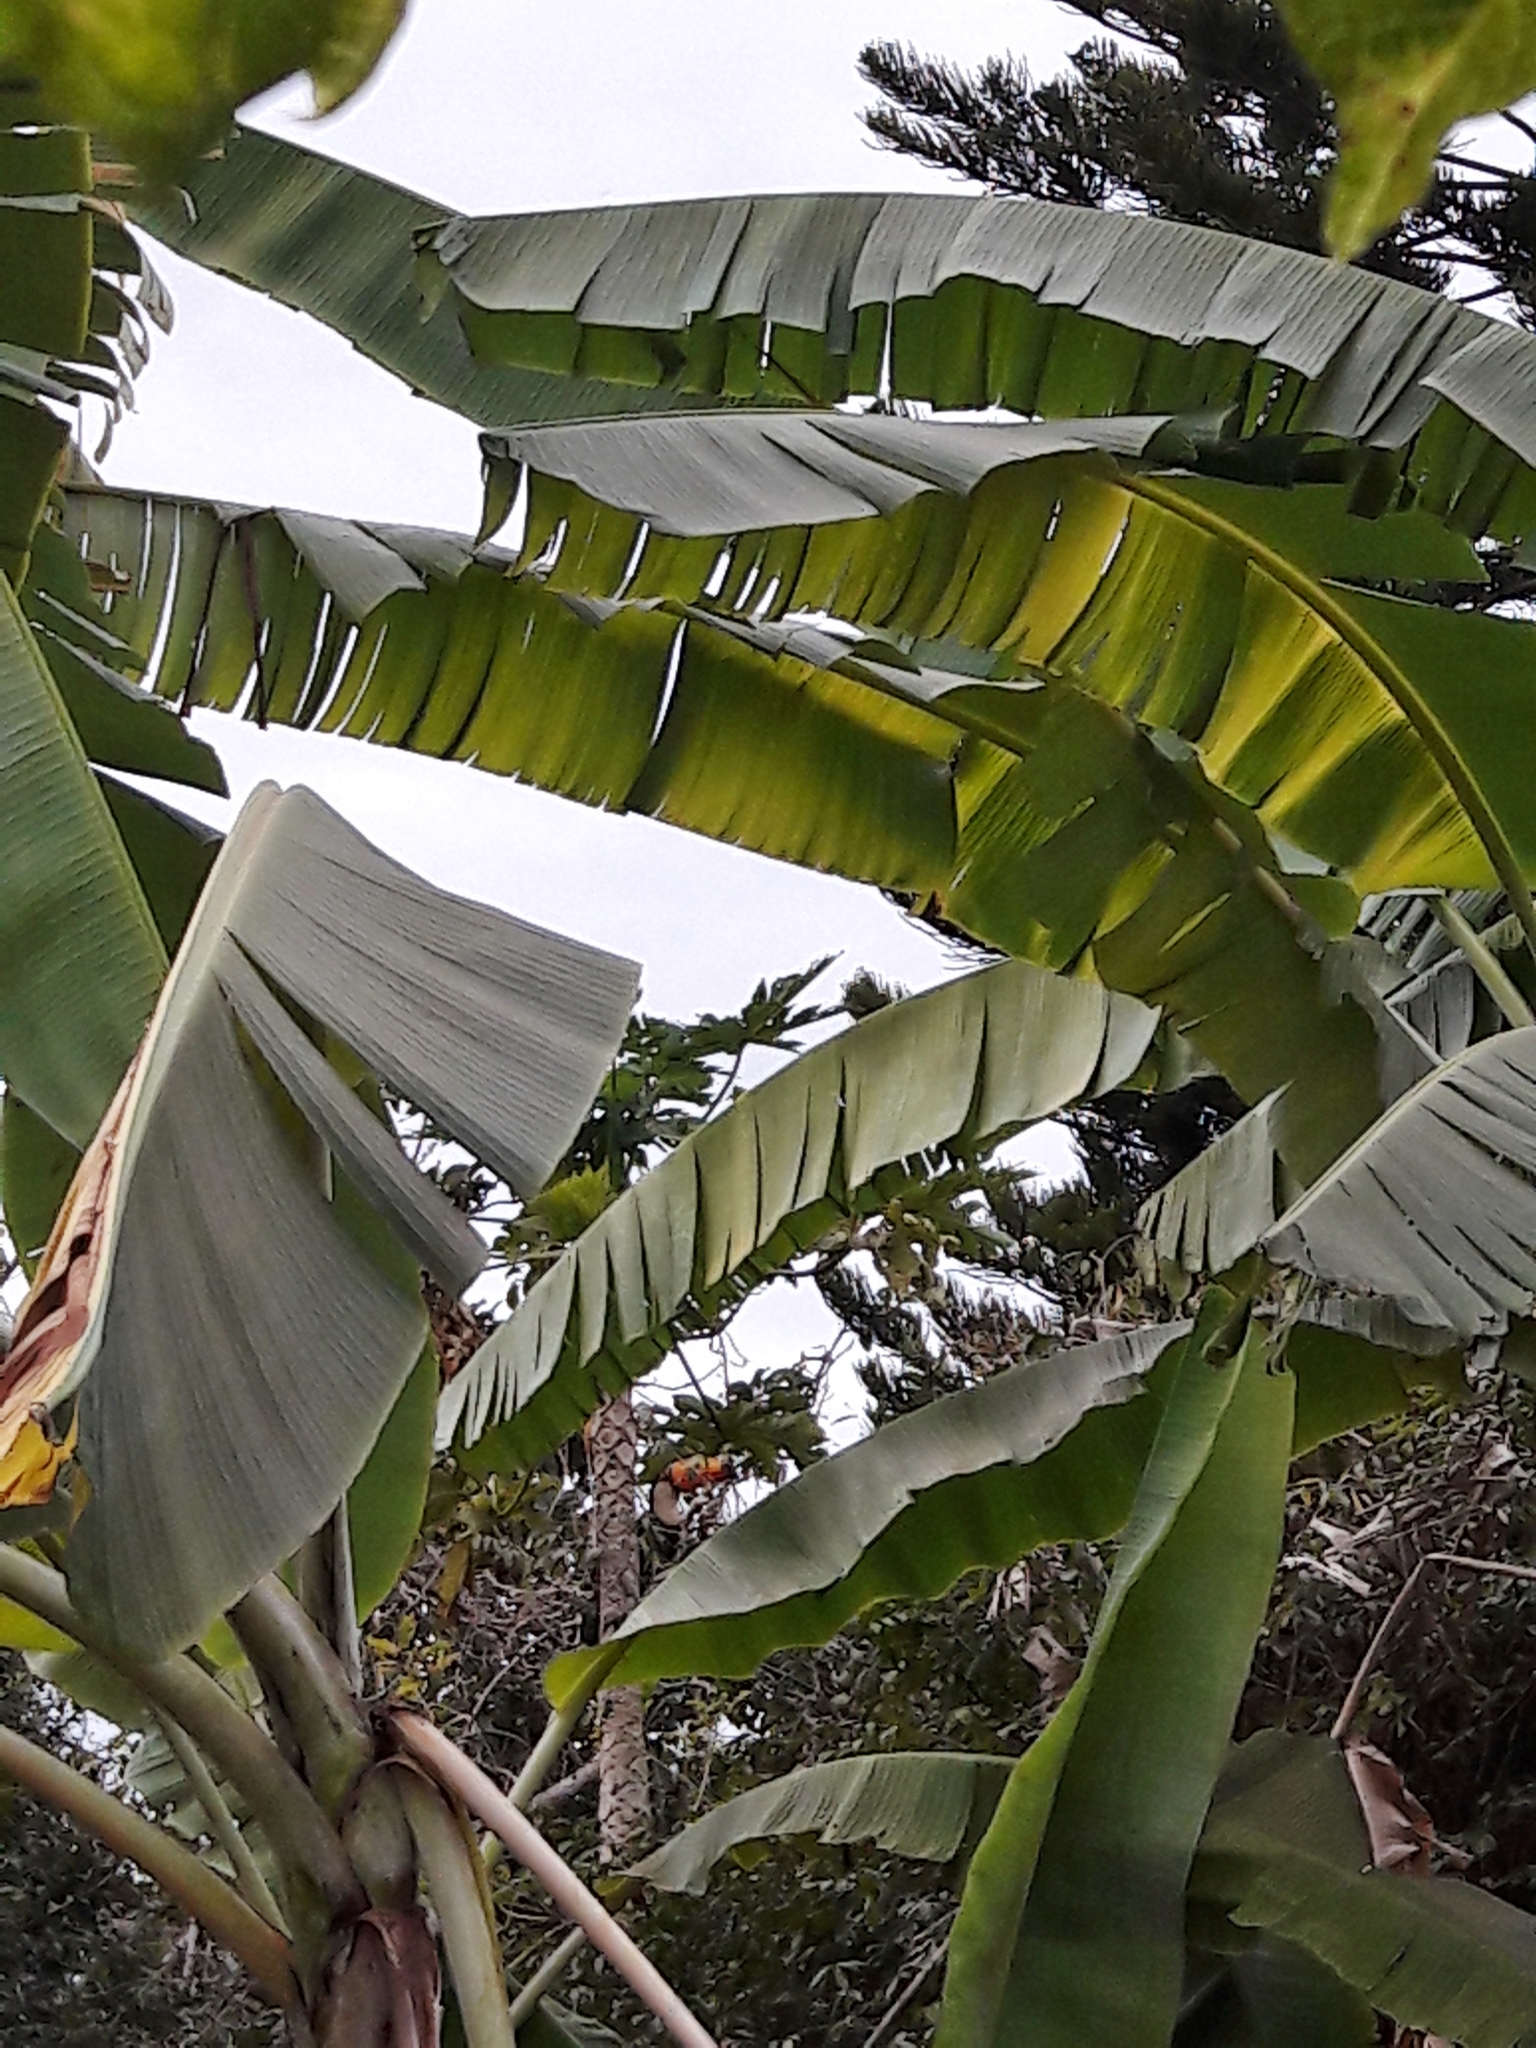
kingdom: Animalia
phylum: Chordata
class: Aves
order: Piciformes
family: Ramphastidae
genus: Ramphastos
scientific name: Ramphastos toco
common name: Toco toucan
